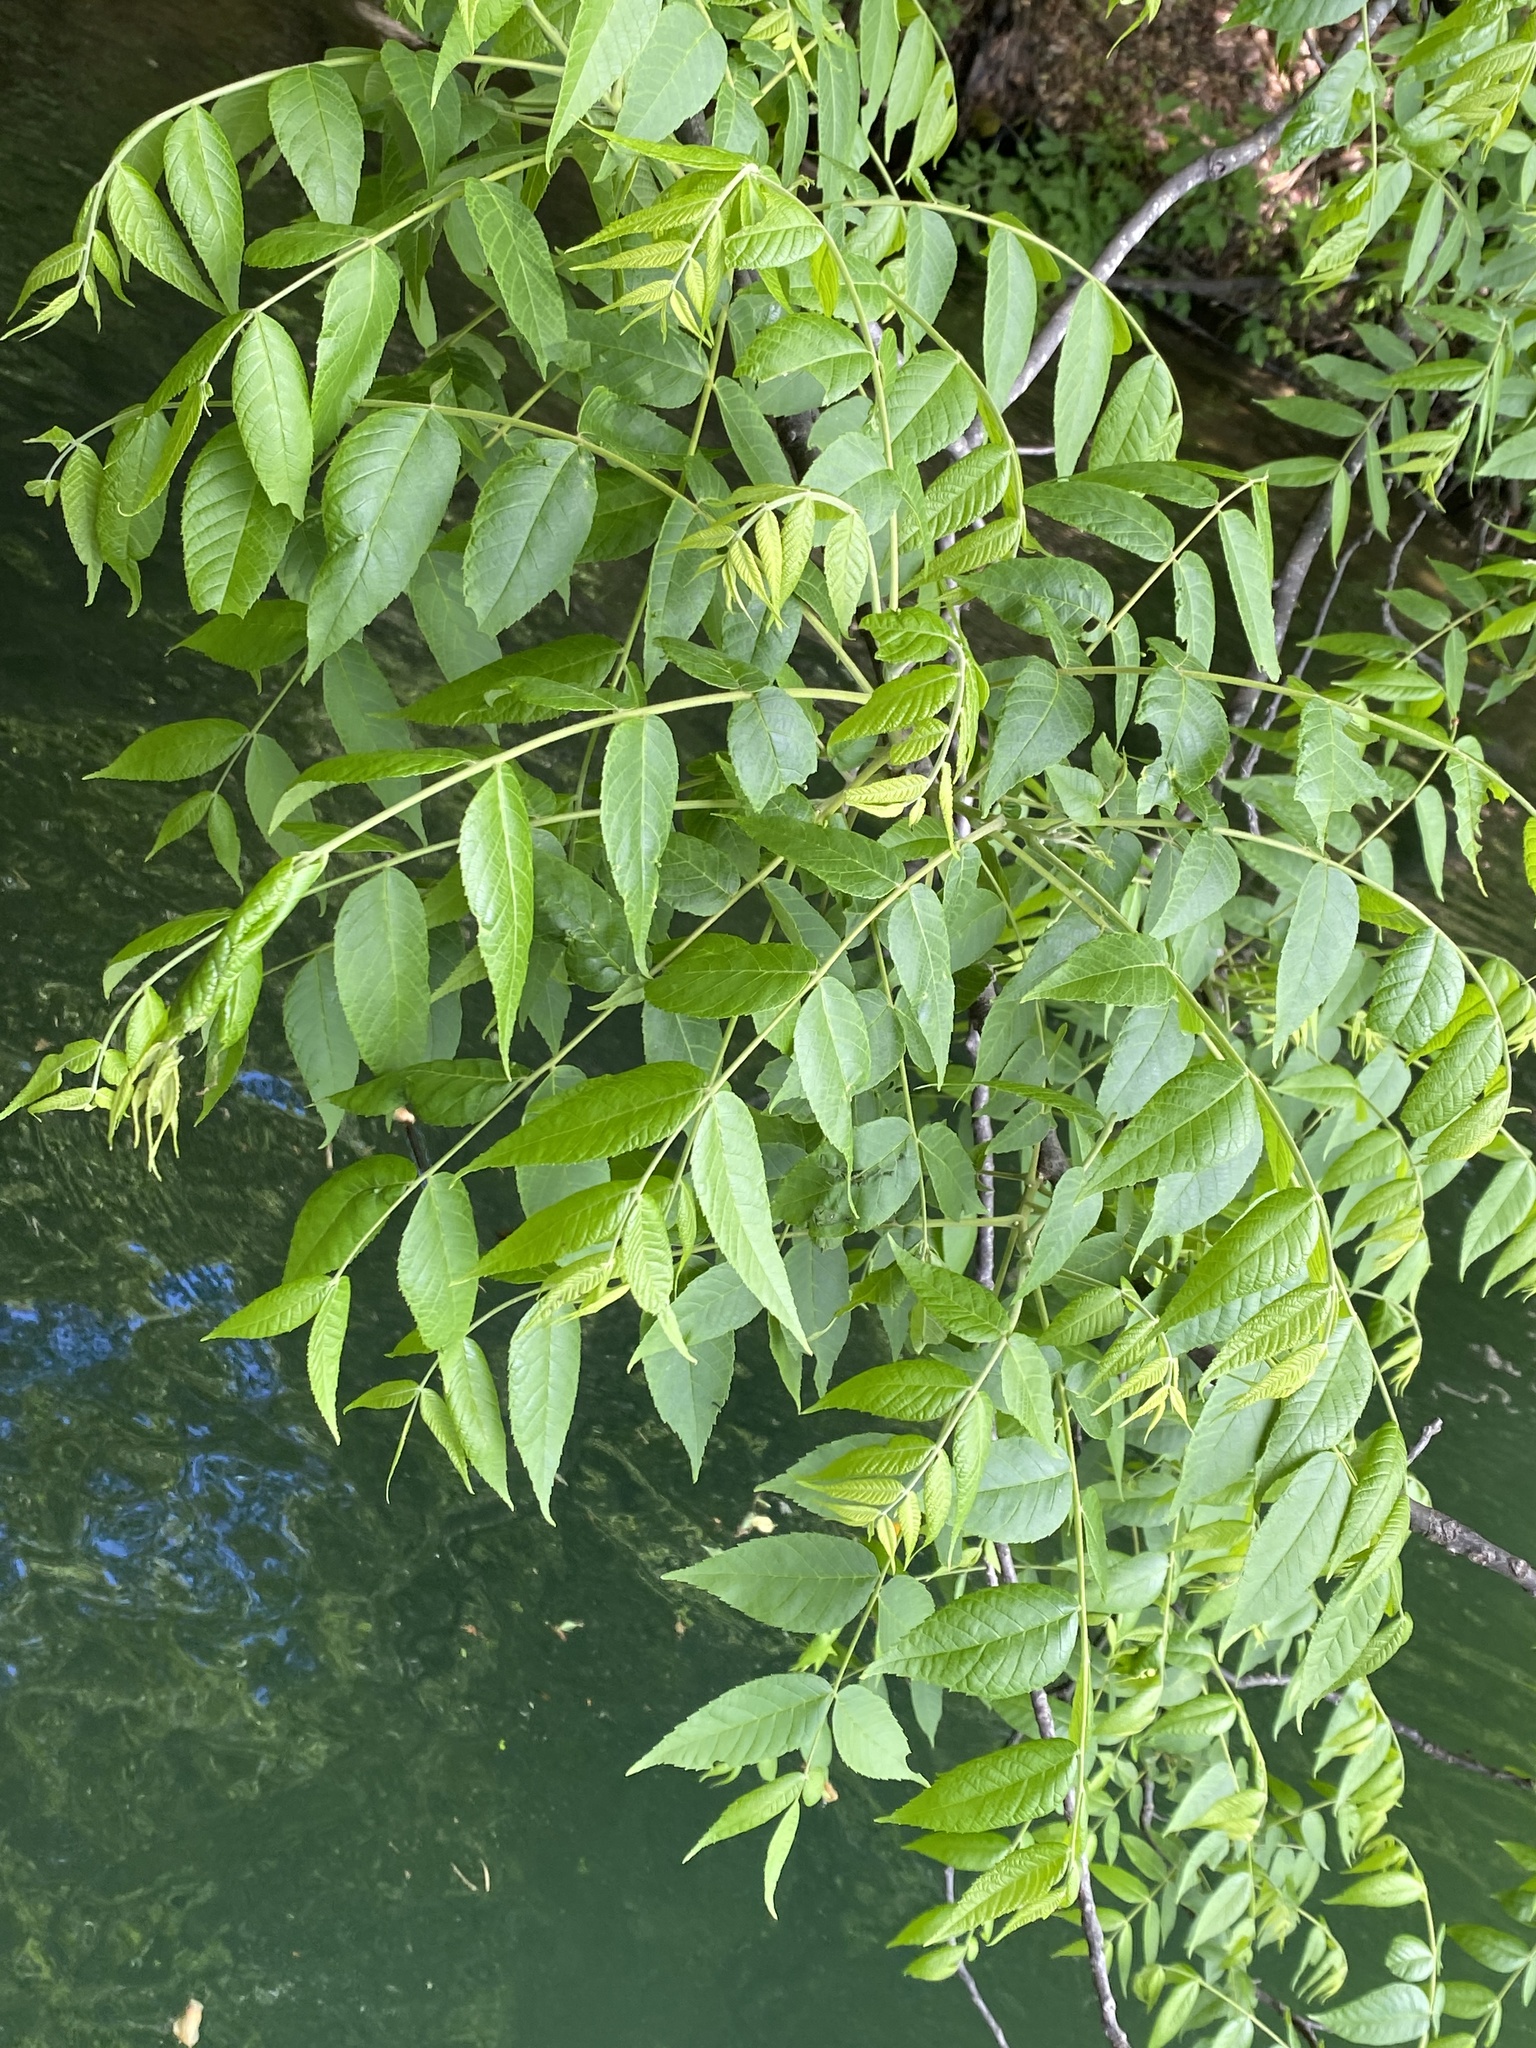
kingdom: Plantae
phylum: Tracheophyta
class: Magnoliopsida
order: Fagales
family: Juglandaceae
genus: Juglans
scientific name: Juglans nigra
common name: Black walnut
